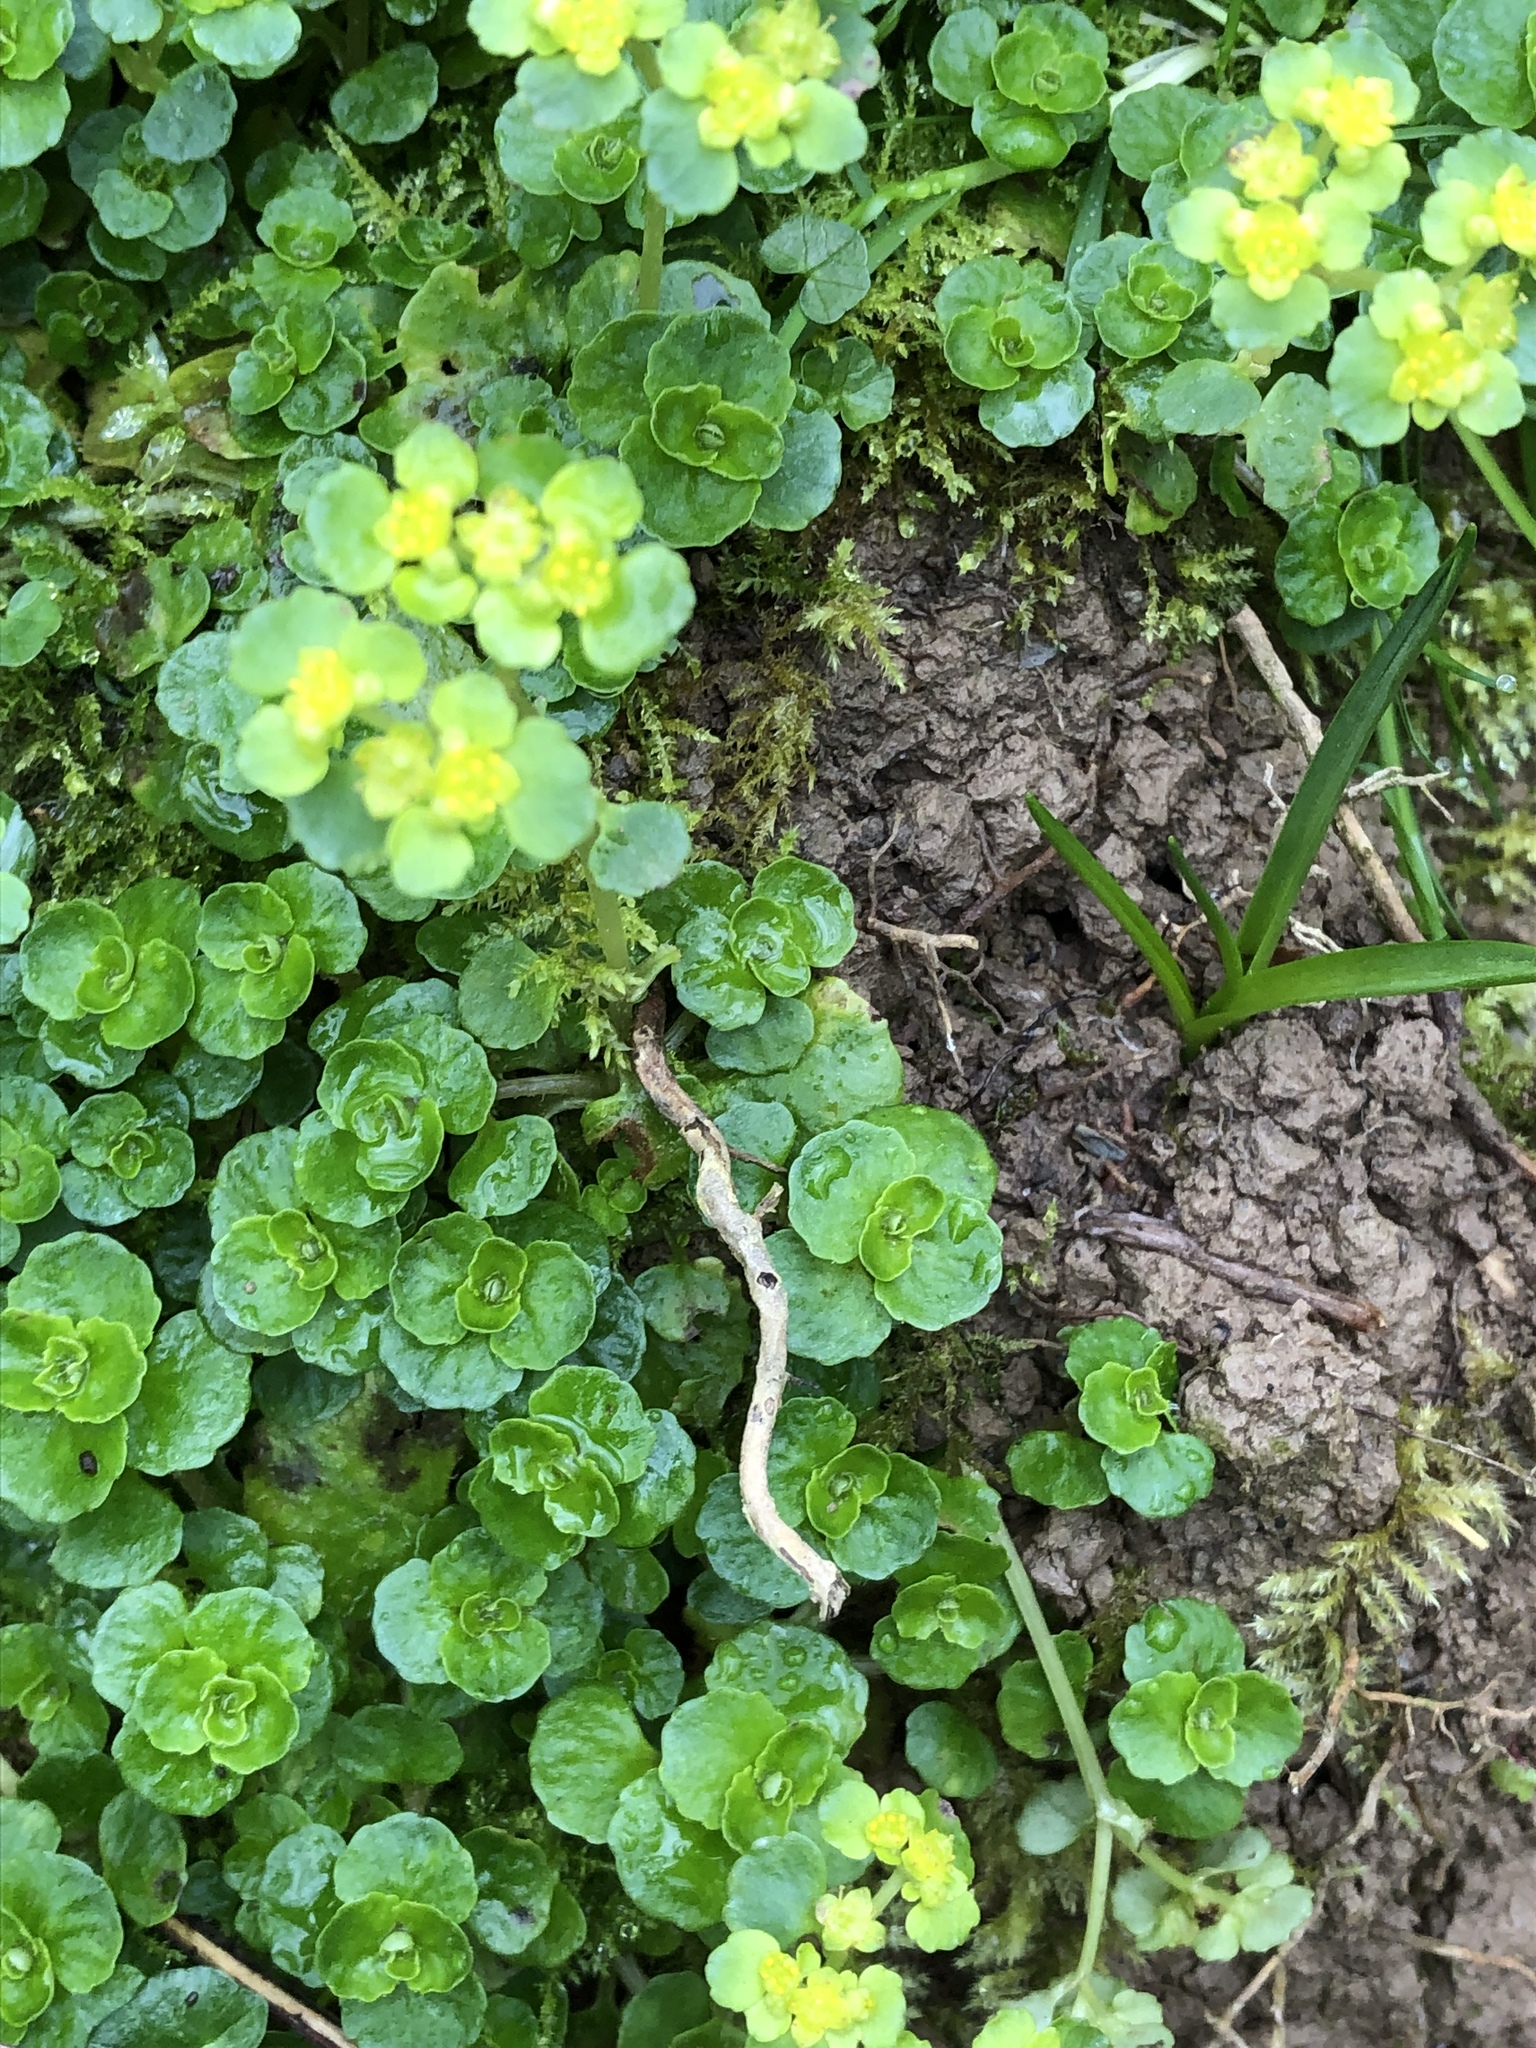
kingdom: Plantae
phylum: Tracheophyta
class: Magnoliopsida
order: Saxifragales
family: Saxifragaceae
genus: Chrysosplenium
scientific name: Chrysosplenium oppositifolium
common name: Opposite-leaved golden-saxifrage
